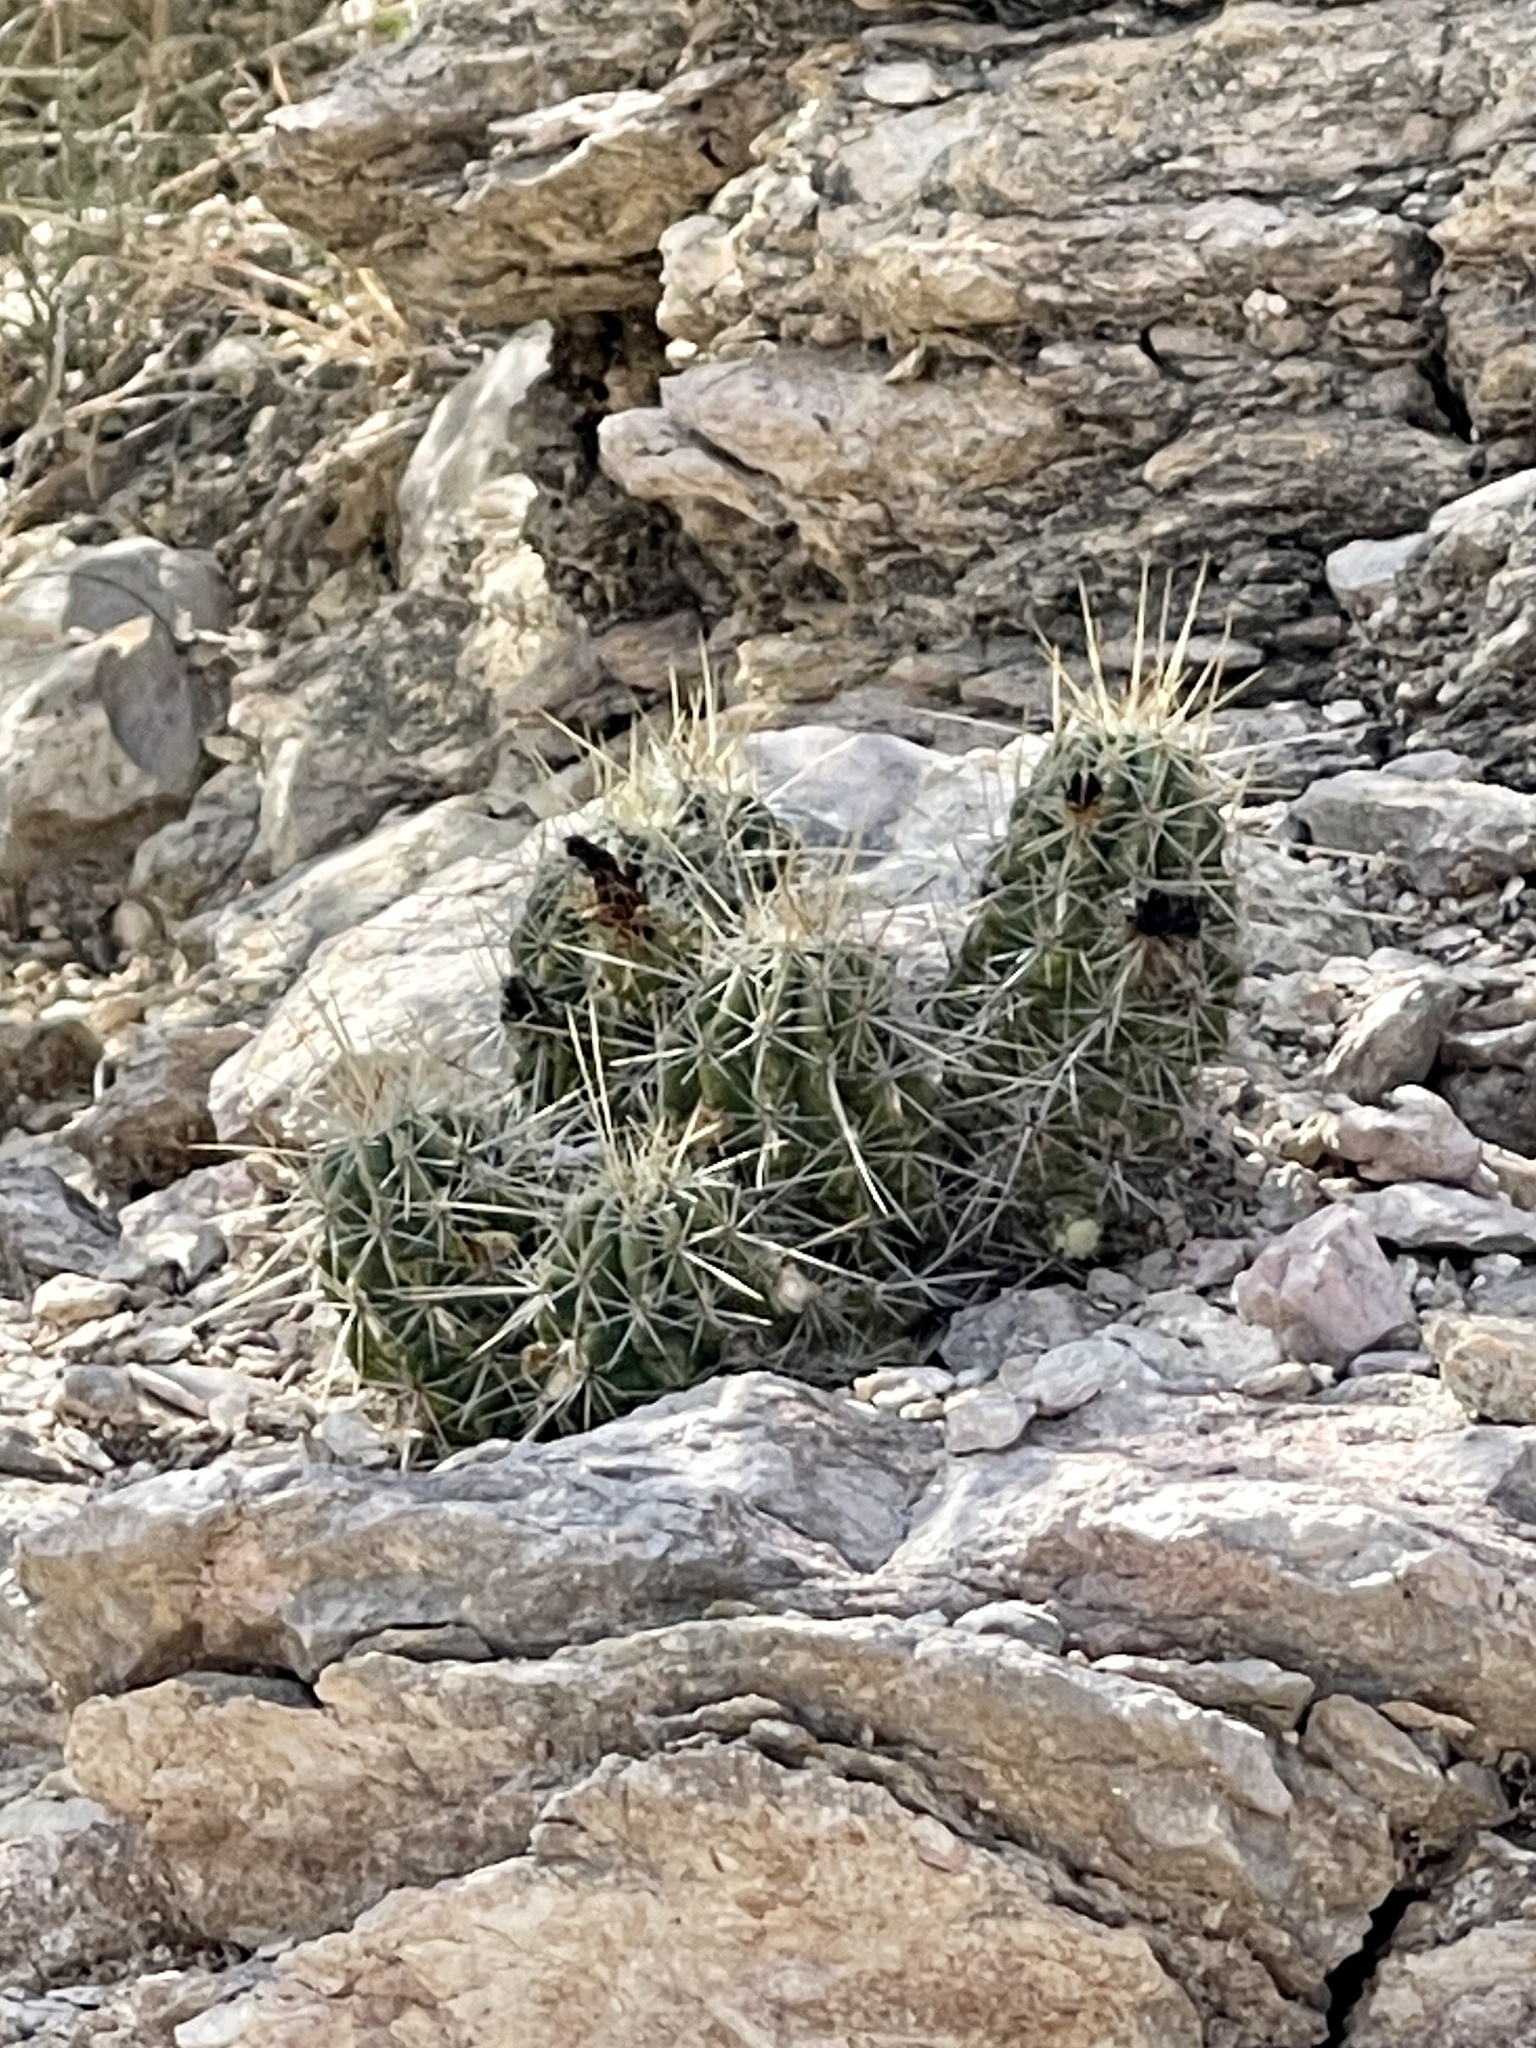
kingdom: Plantae
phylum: Tracheophyta
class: Magnoliopsida
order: Caryophyllales
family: Cactaceae
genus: Echinocereus
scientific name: Echinocereus enneacanthus
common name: Pitaya
